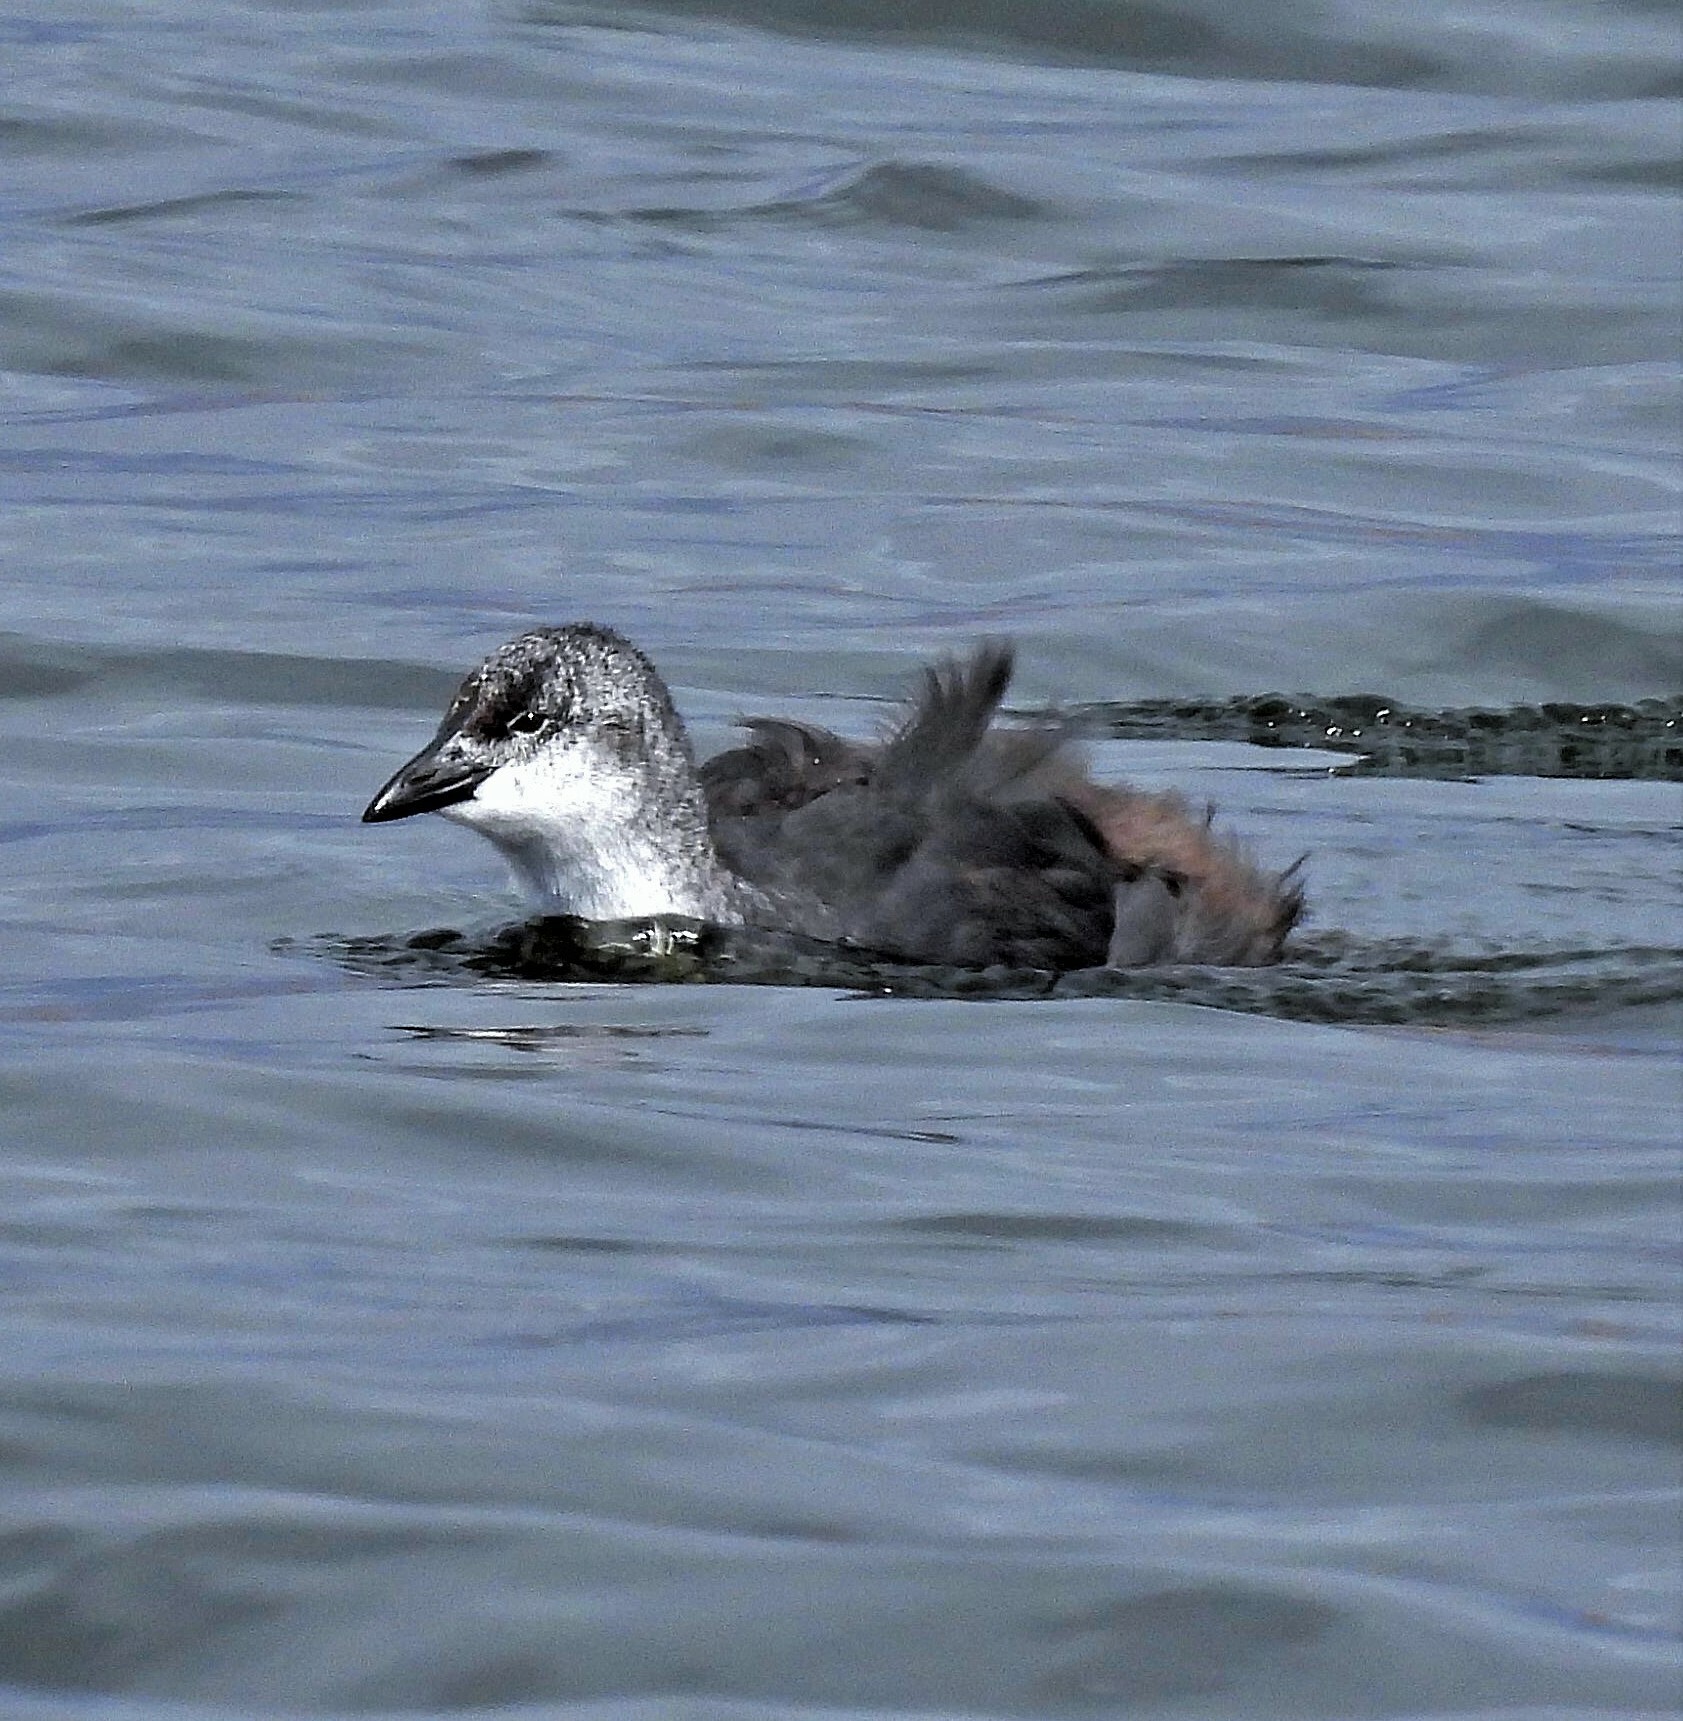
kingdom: Animalia
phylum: Chordata
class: Aves
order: Gruiformes
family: Rallidae
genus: Fulica
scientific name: Fulica armillata
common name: Red-gartered coot
